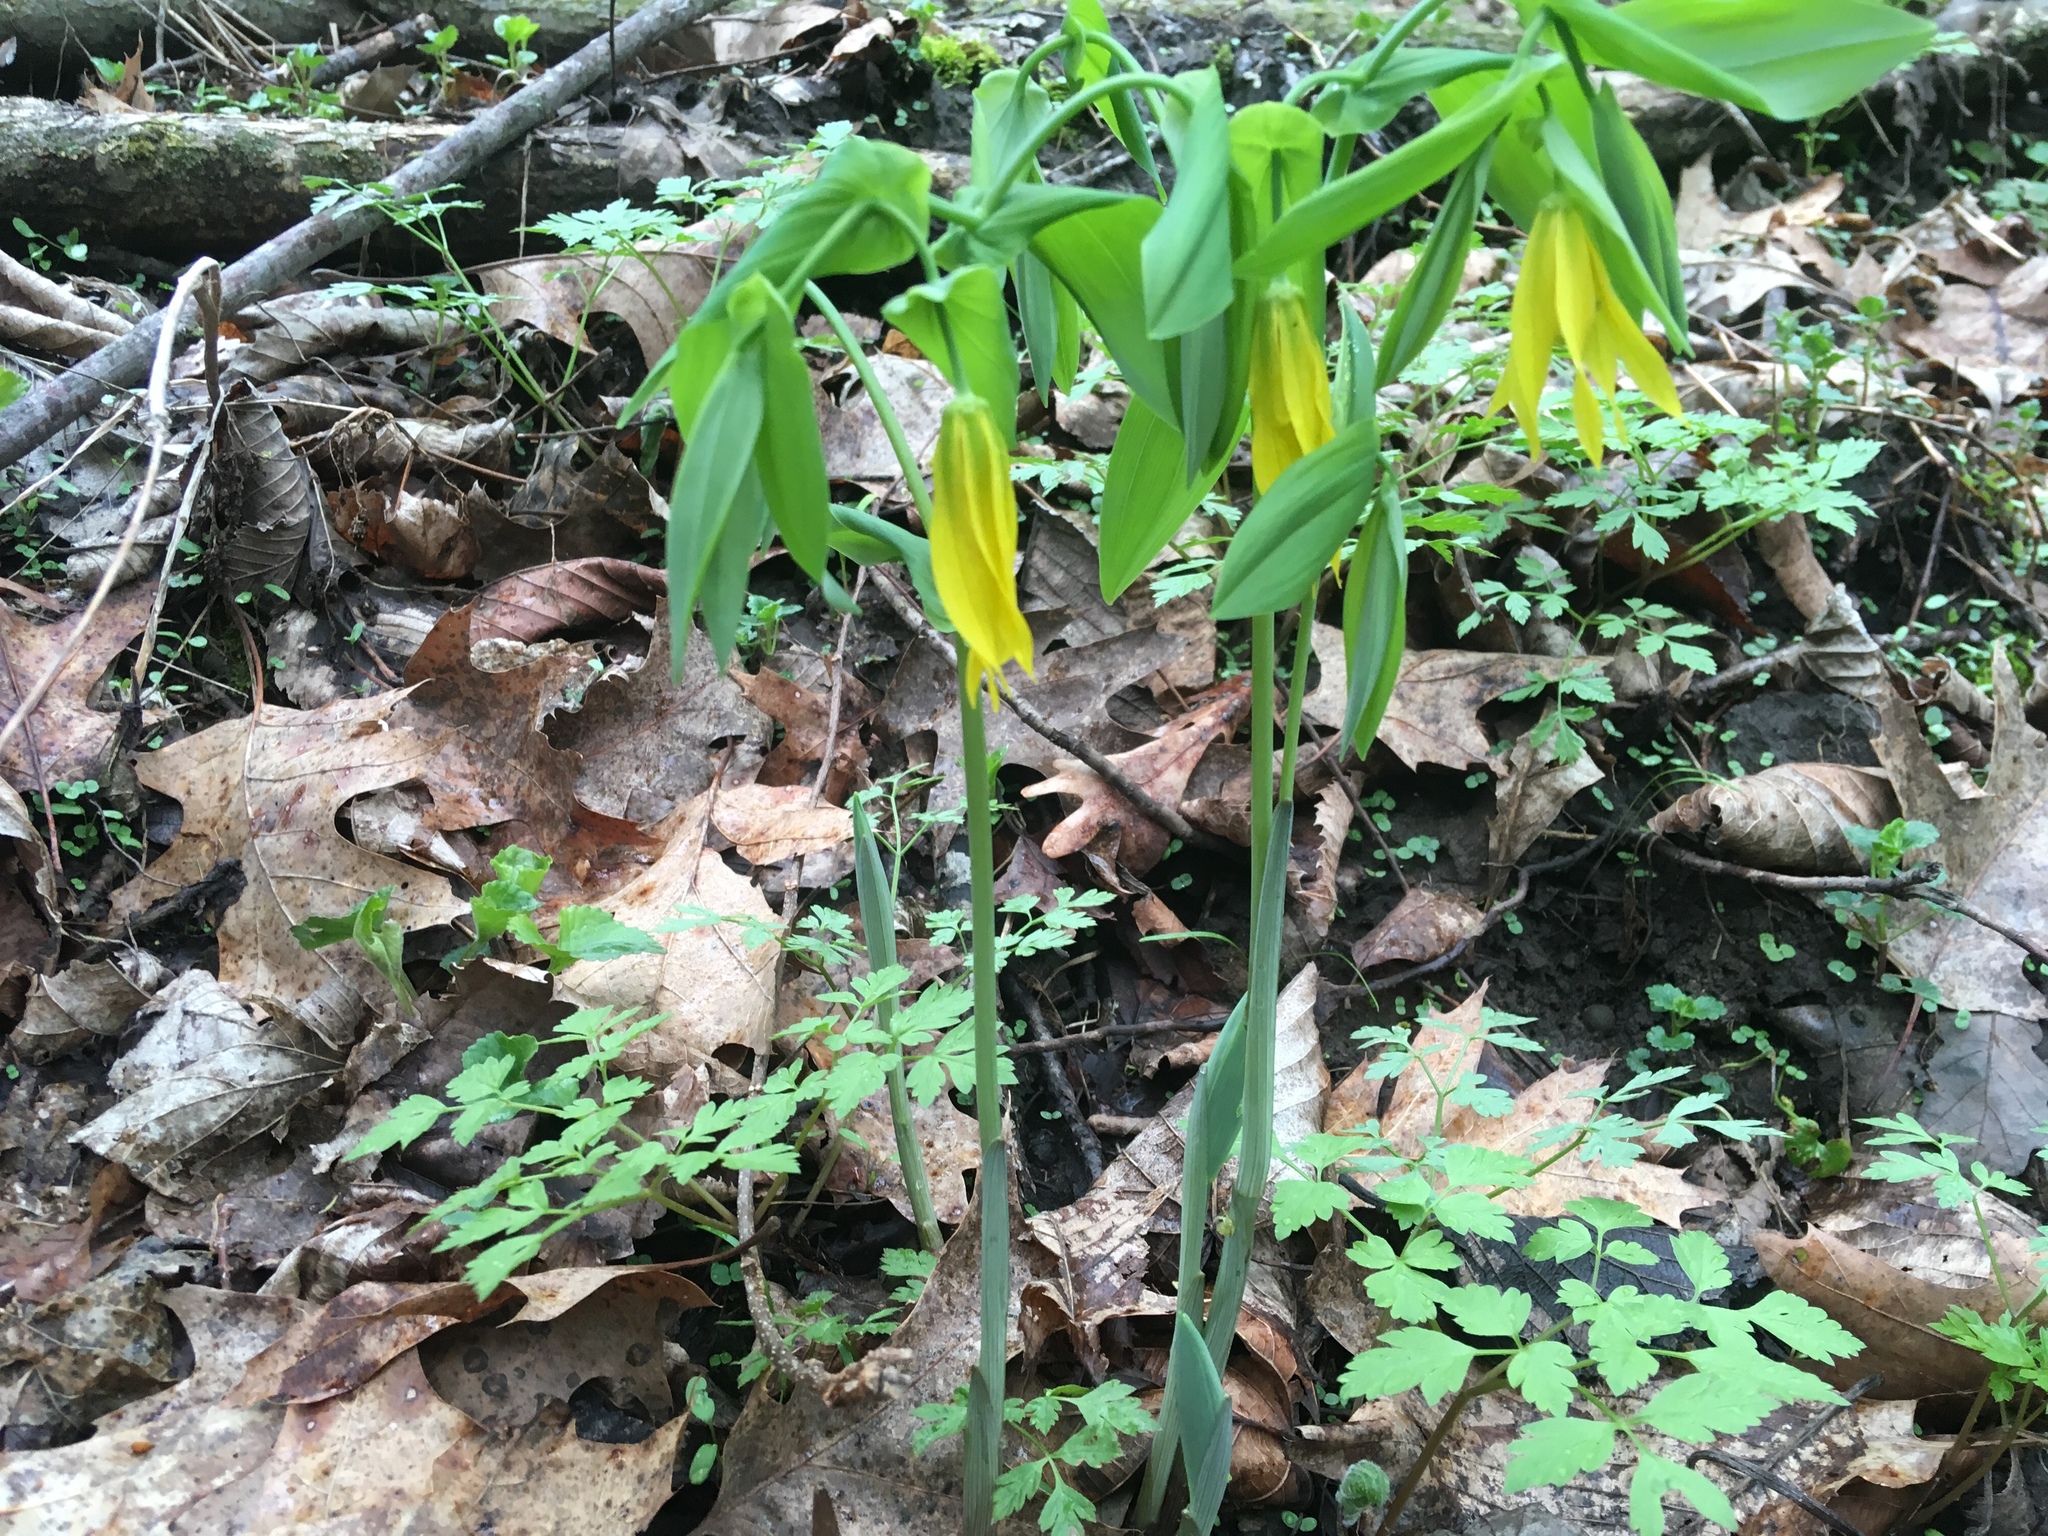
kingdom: Plantae
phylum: Tracheophyta
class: Liliopsida
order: Liliales
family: Colchicaceae
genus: Uvularia
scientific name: Uvularia grandiflora
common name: Bellwort
